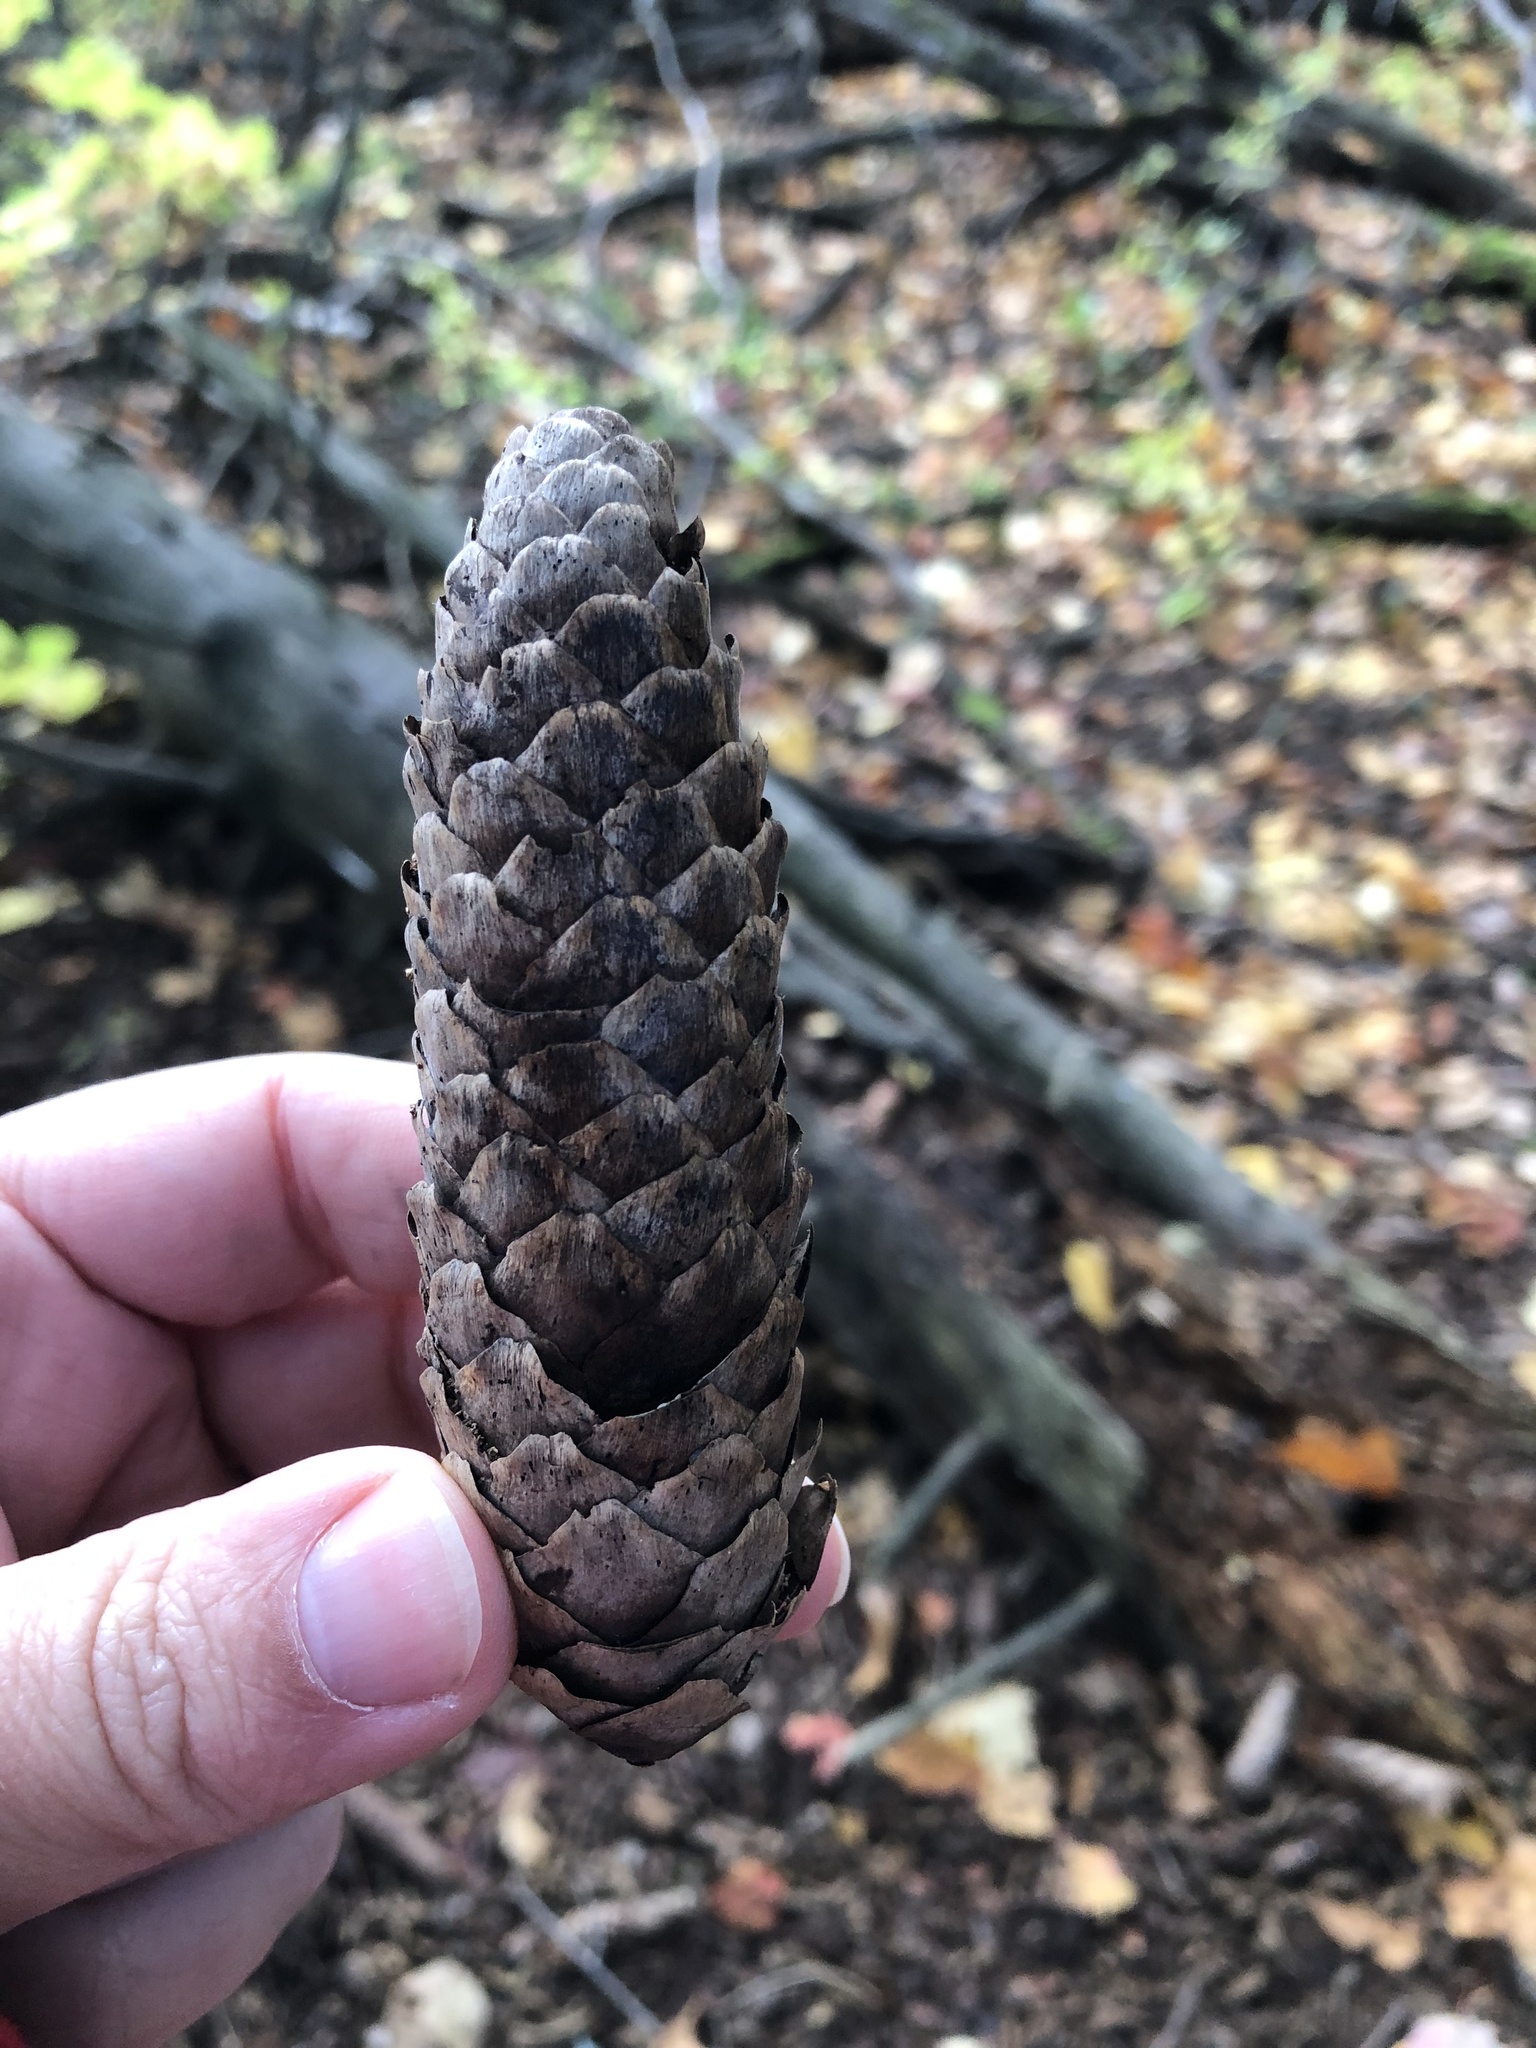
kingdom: Plantae
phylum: Tracheophyta
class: Pinopsida
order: Pinales
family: Pinaceae
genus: Picea
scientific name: Picea abies
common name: Norway spruce
